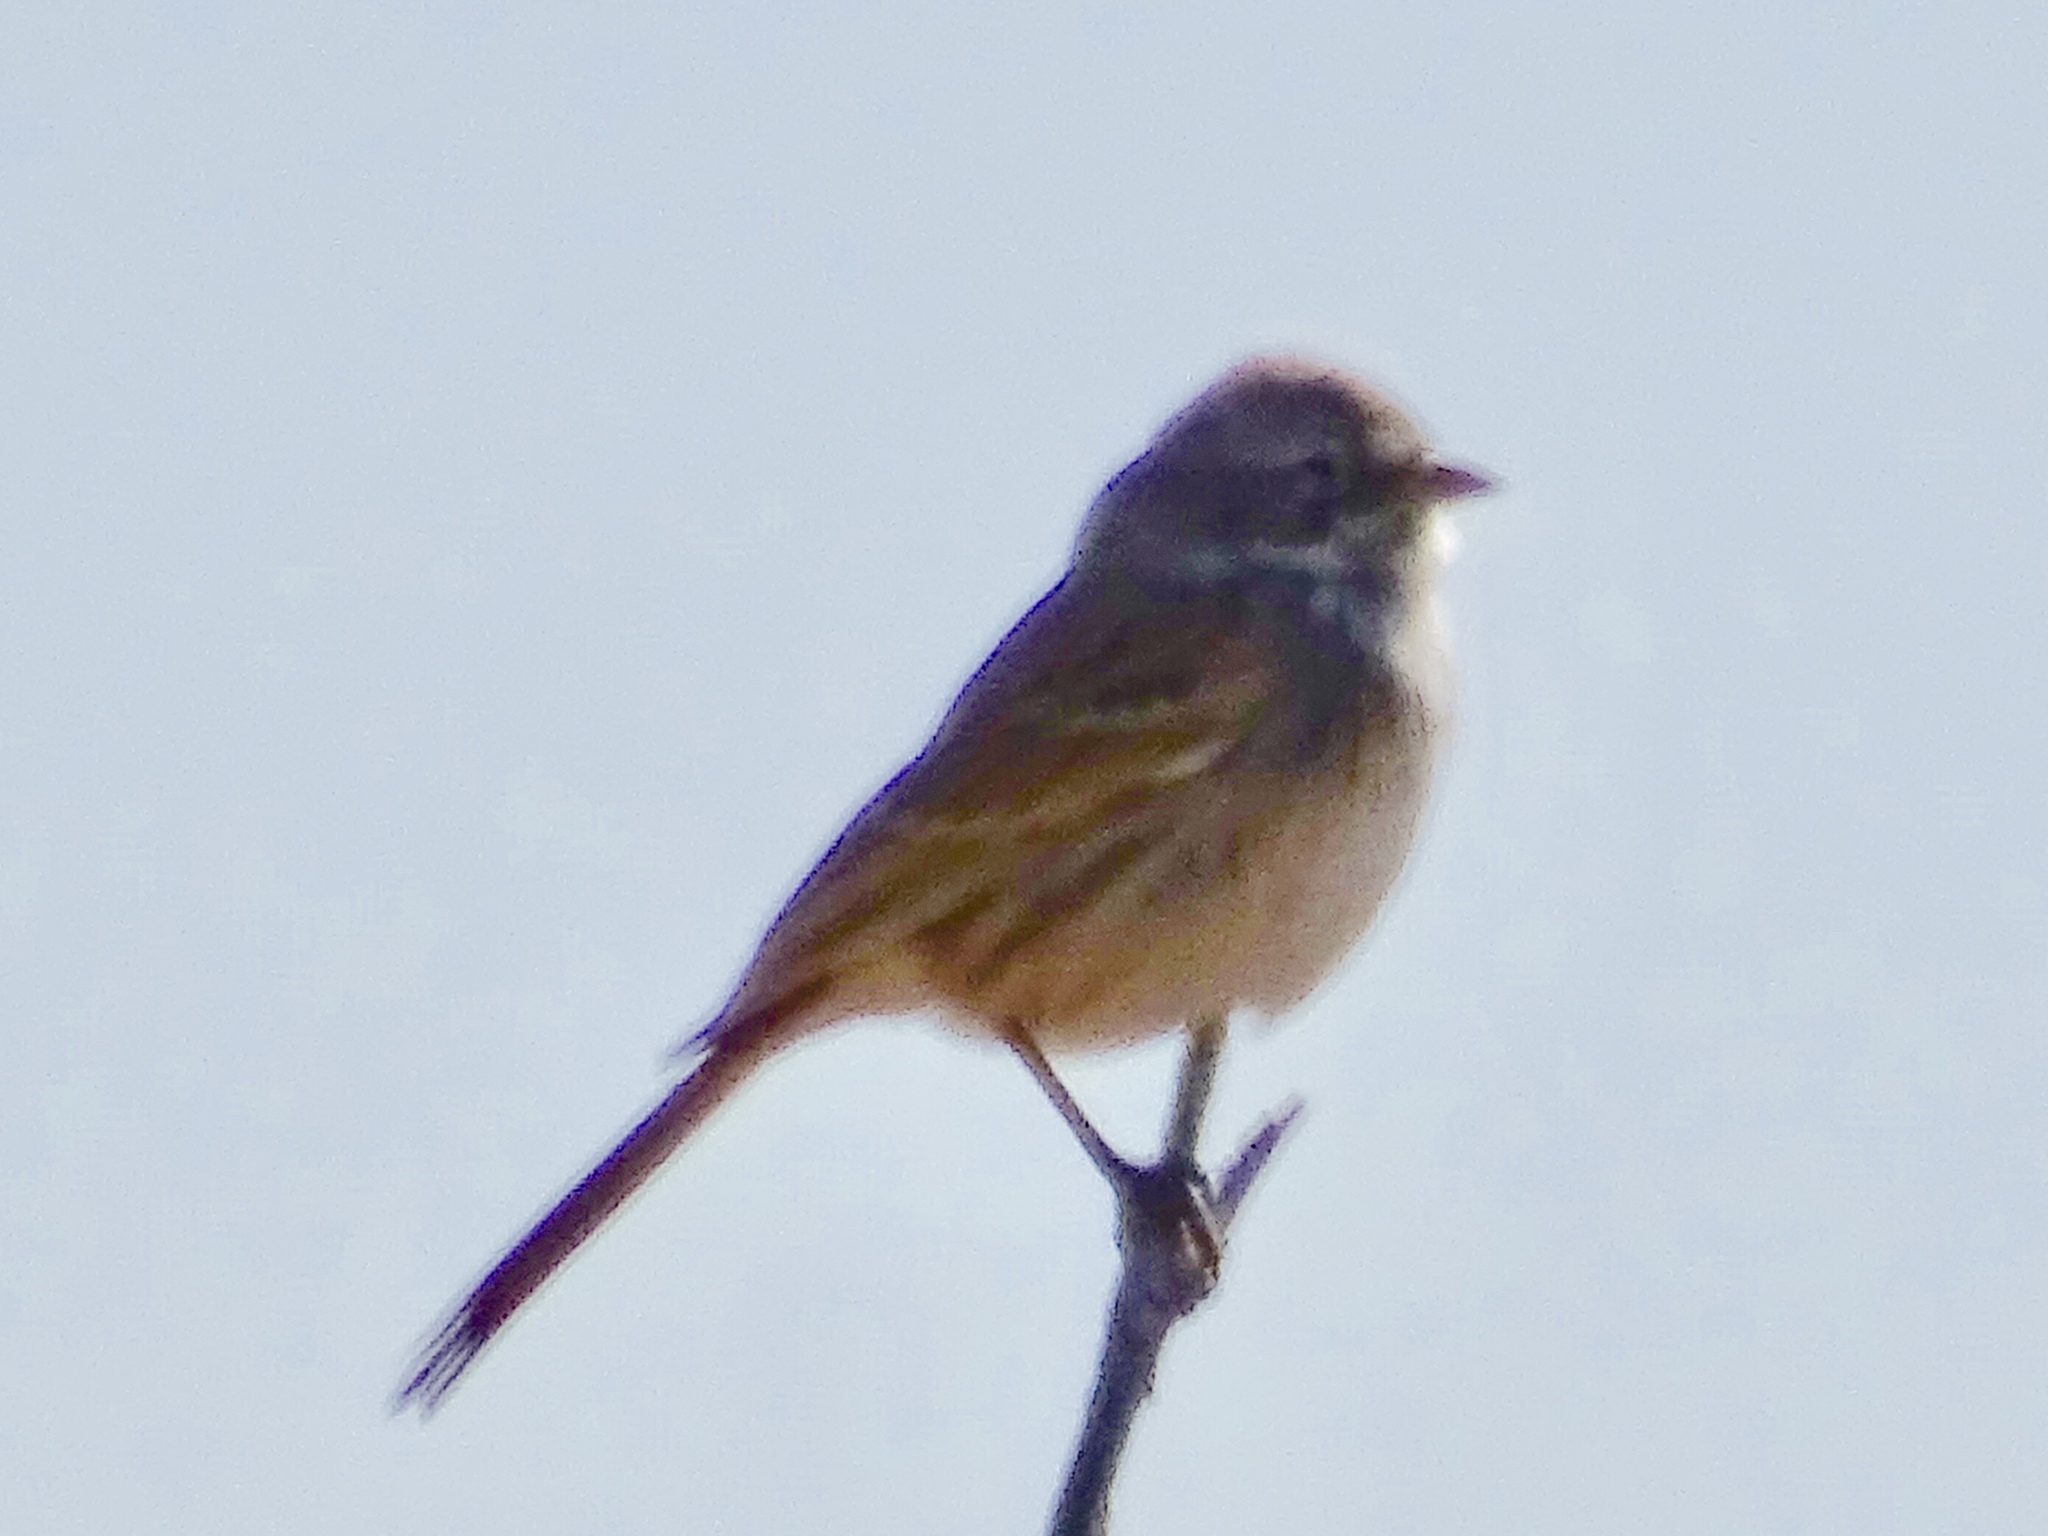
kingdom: Animalia
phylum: Chordata
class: Aves
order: Passeriformes
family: Passerellidae
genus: Artemisiospiza
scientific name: Artemisiospiza nevadensis
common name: Sagebrush sparrow
